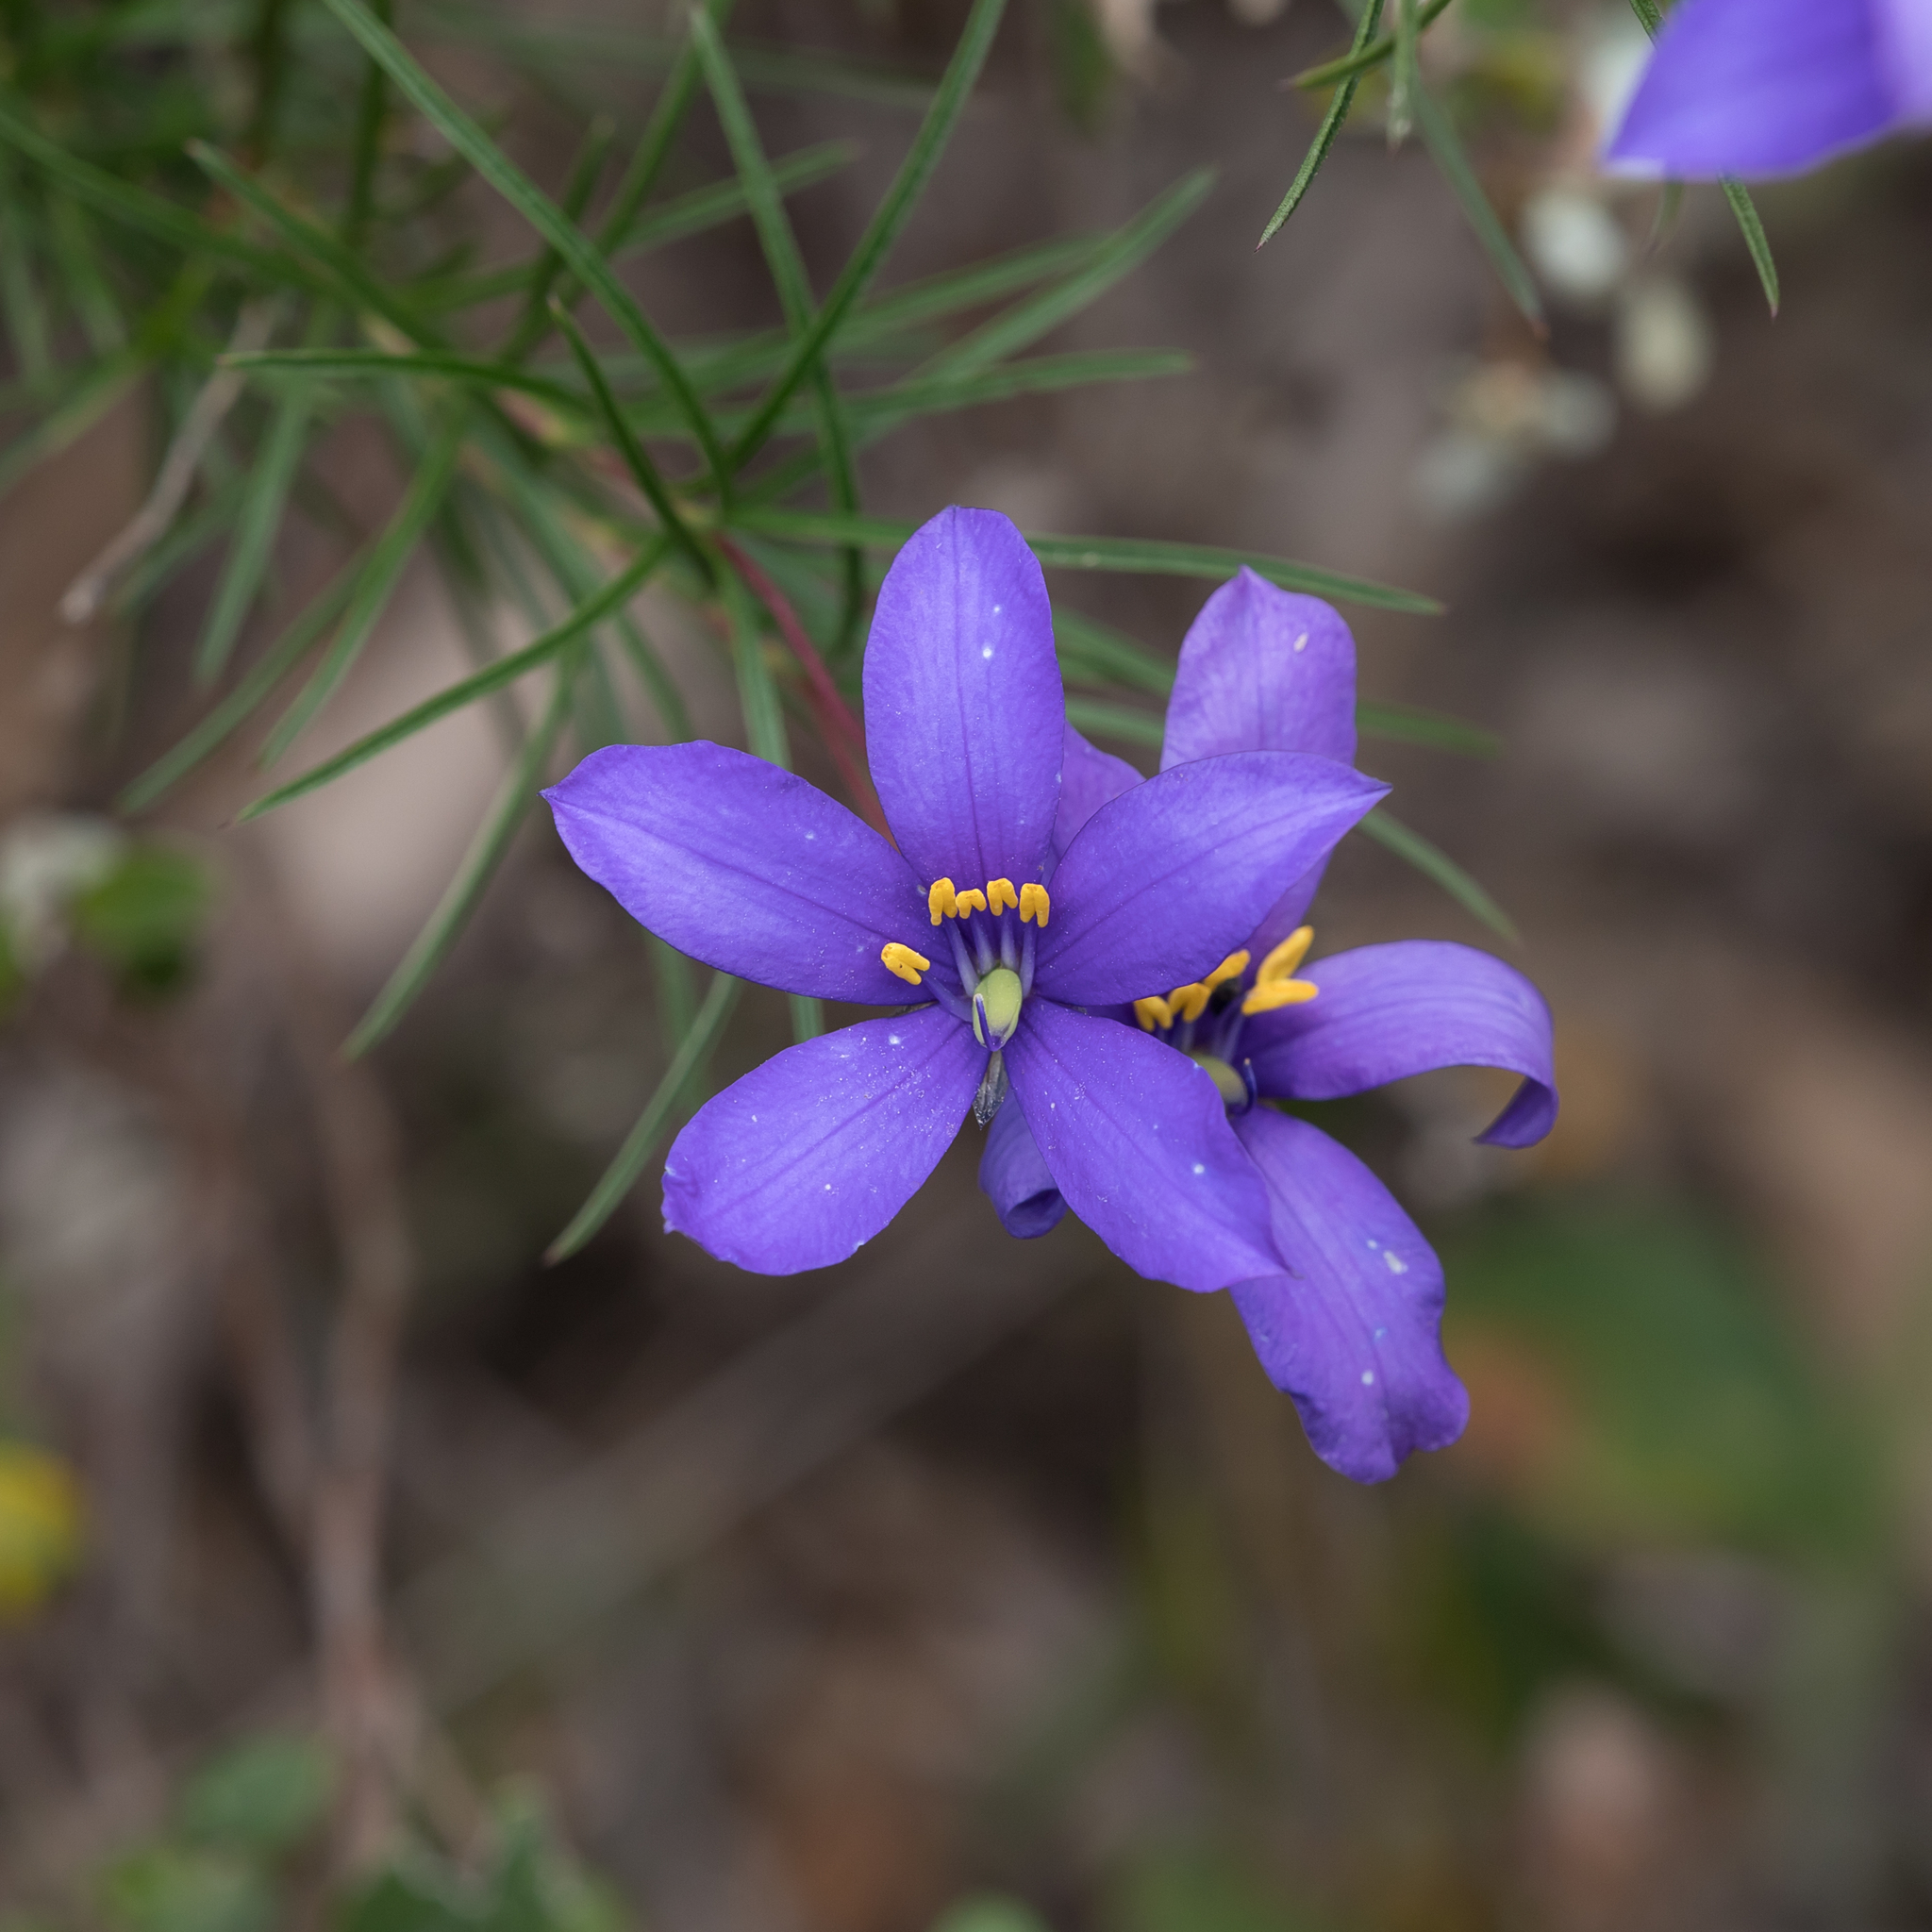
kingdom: Plantae
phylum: Tracheophyta
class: Magnoliopsida
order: Apiales
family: Pittosporaceae
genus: Cheiranthera
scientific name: Cheiranthera alternifolia
